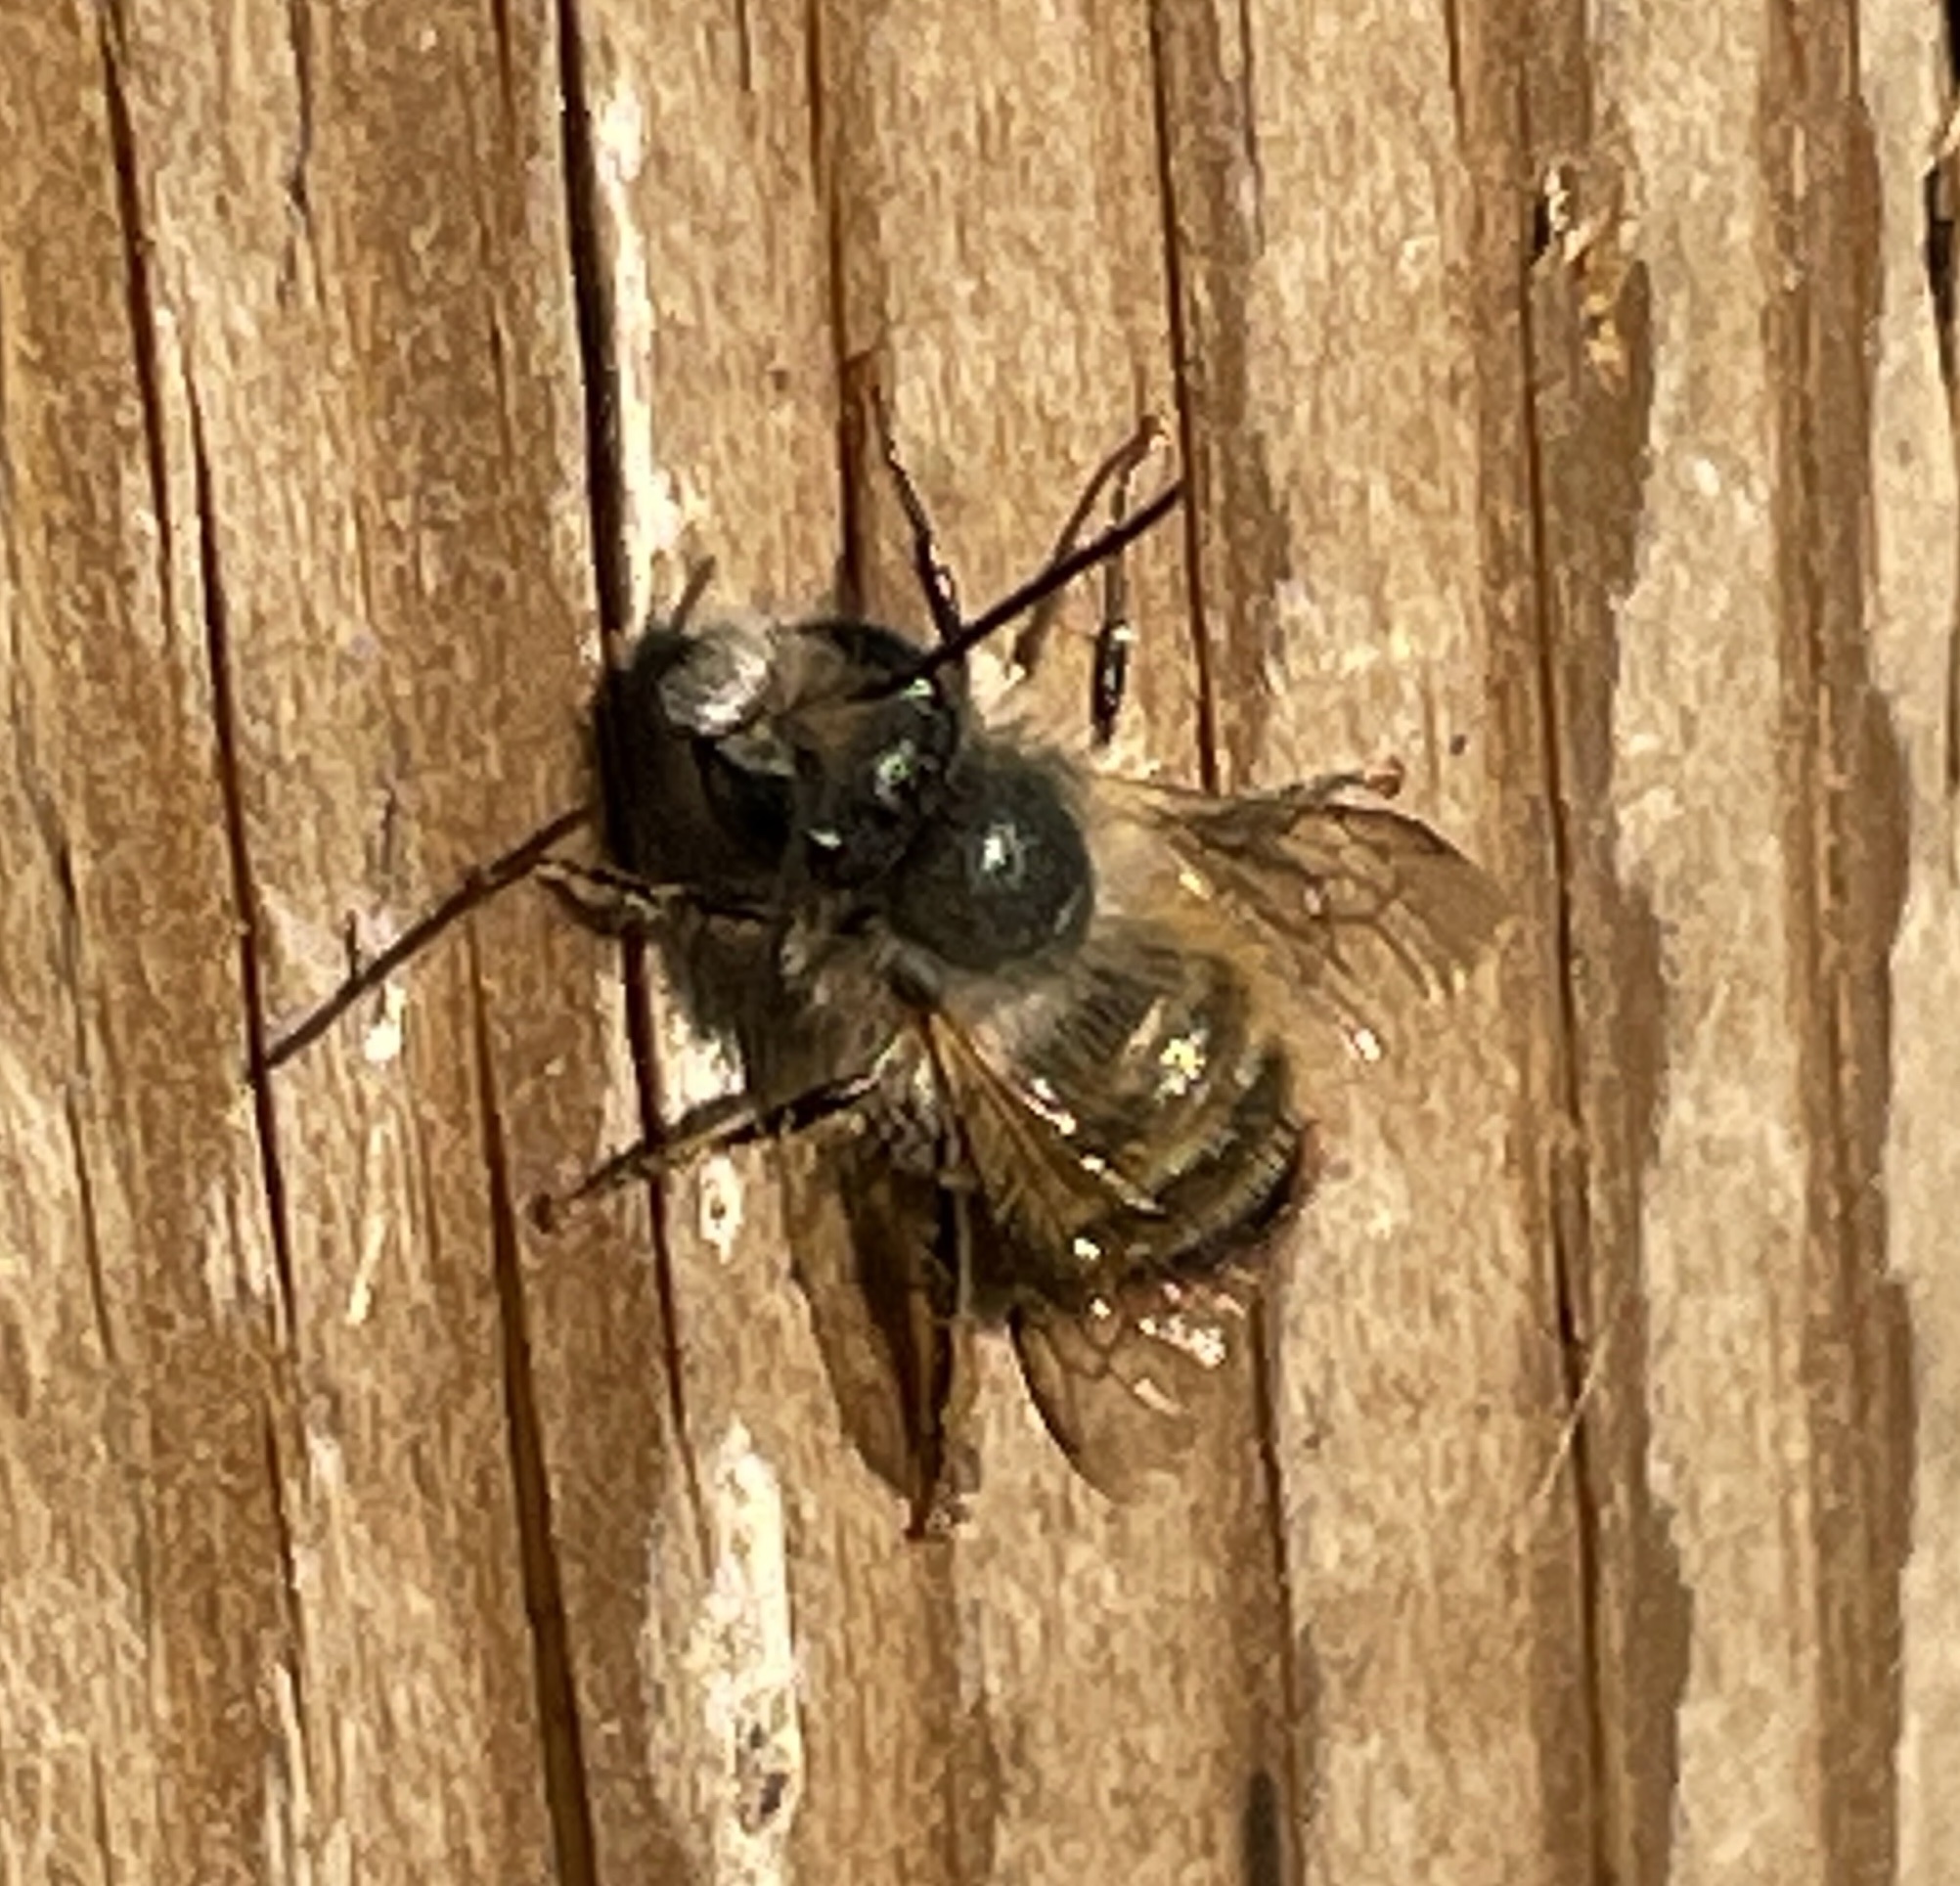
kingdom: Animalia
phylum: Arthropoda
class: Insecta
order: Hymenoptera
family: Megachilidae
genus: Osmia
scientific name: Osmia bicornis
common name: Red mason bee
